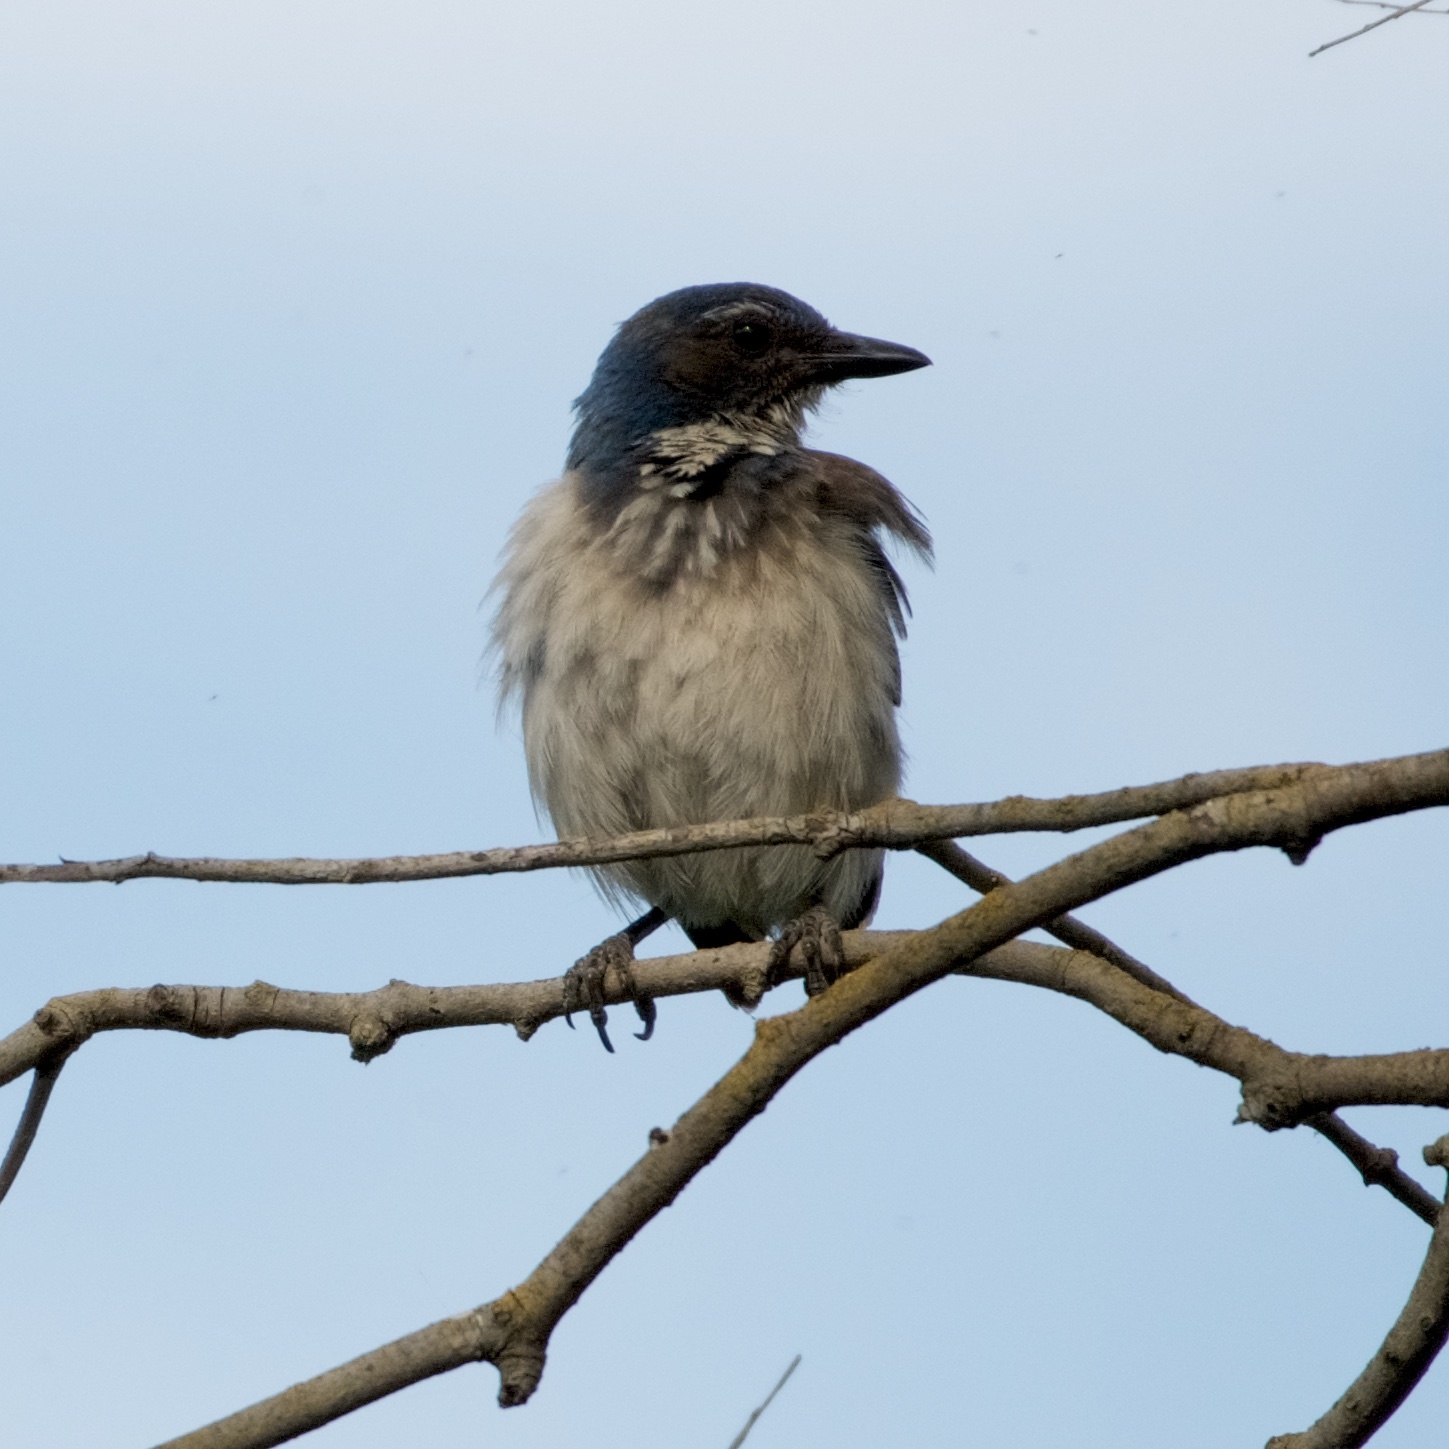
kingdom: Animalia
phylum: Chordata
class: Aves
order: Passeriformes
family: Corvidae
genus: Aphelocoma
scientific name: Aphelocoma californica
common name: California scrub-jay
